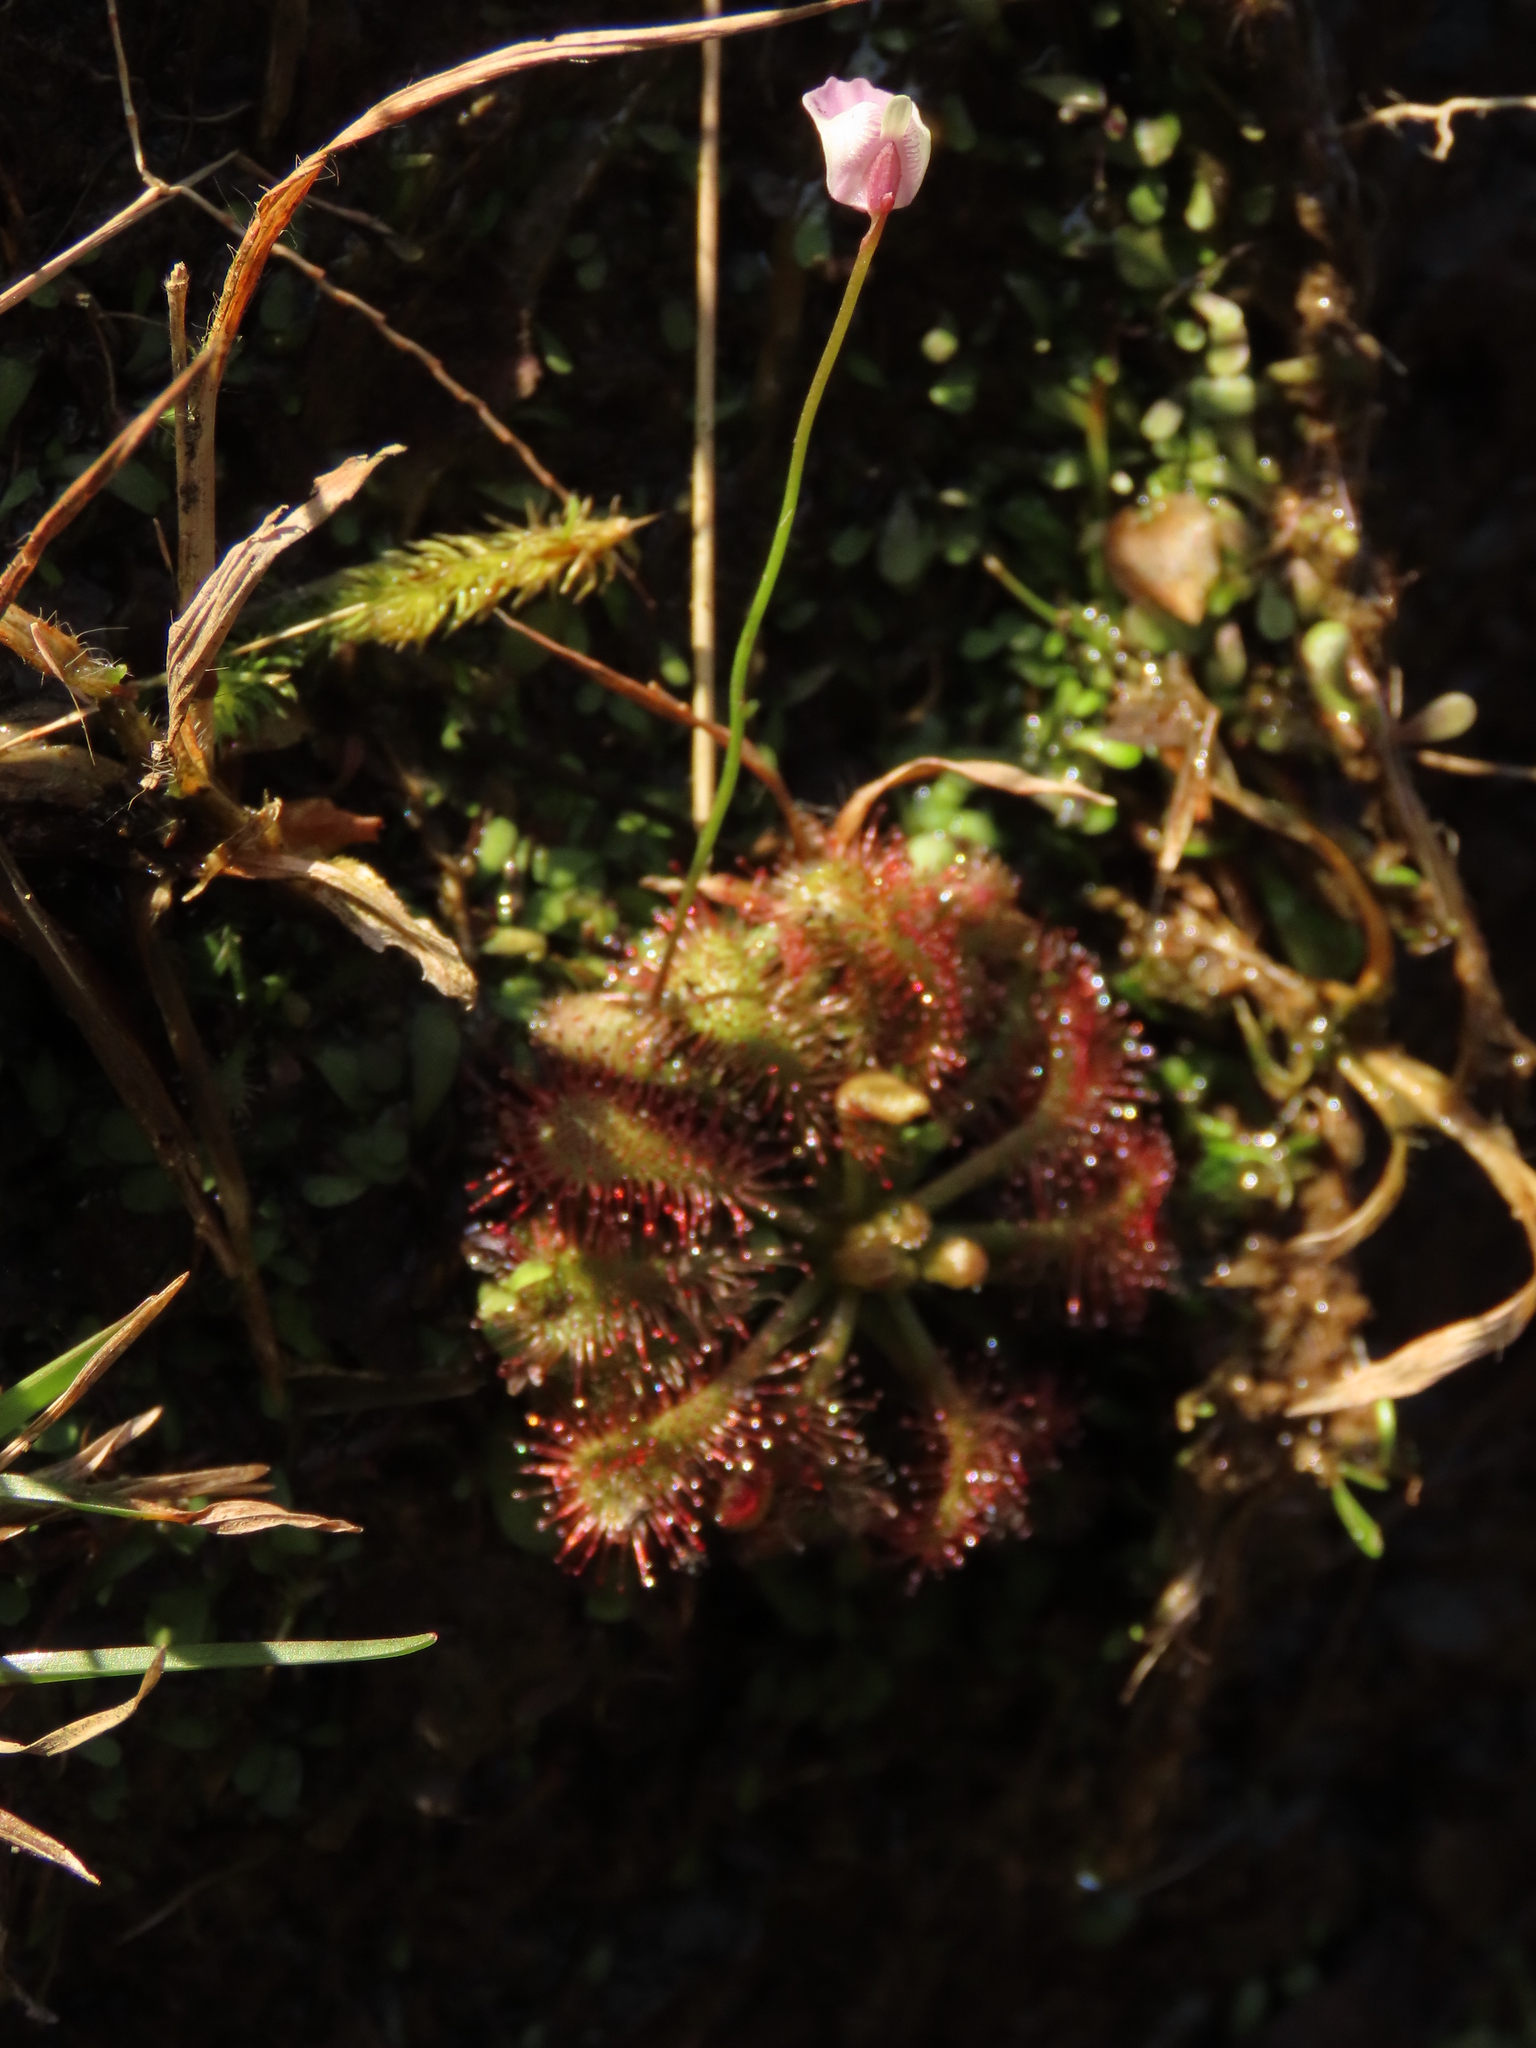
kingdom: Plantae
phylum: Tracheophyta
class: Magnoliopsida
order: Lamiales
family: Lentibulariaceae
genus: Utricularia
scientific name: Utricularia livida
